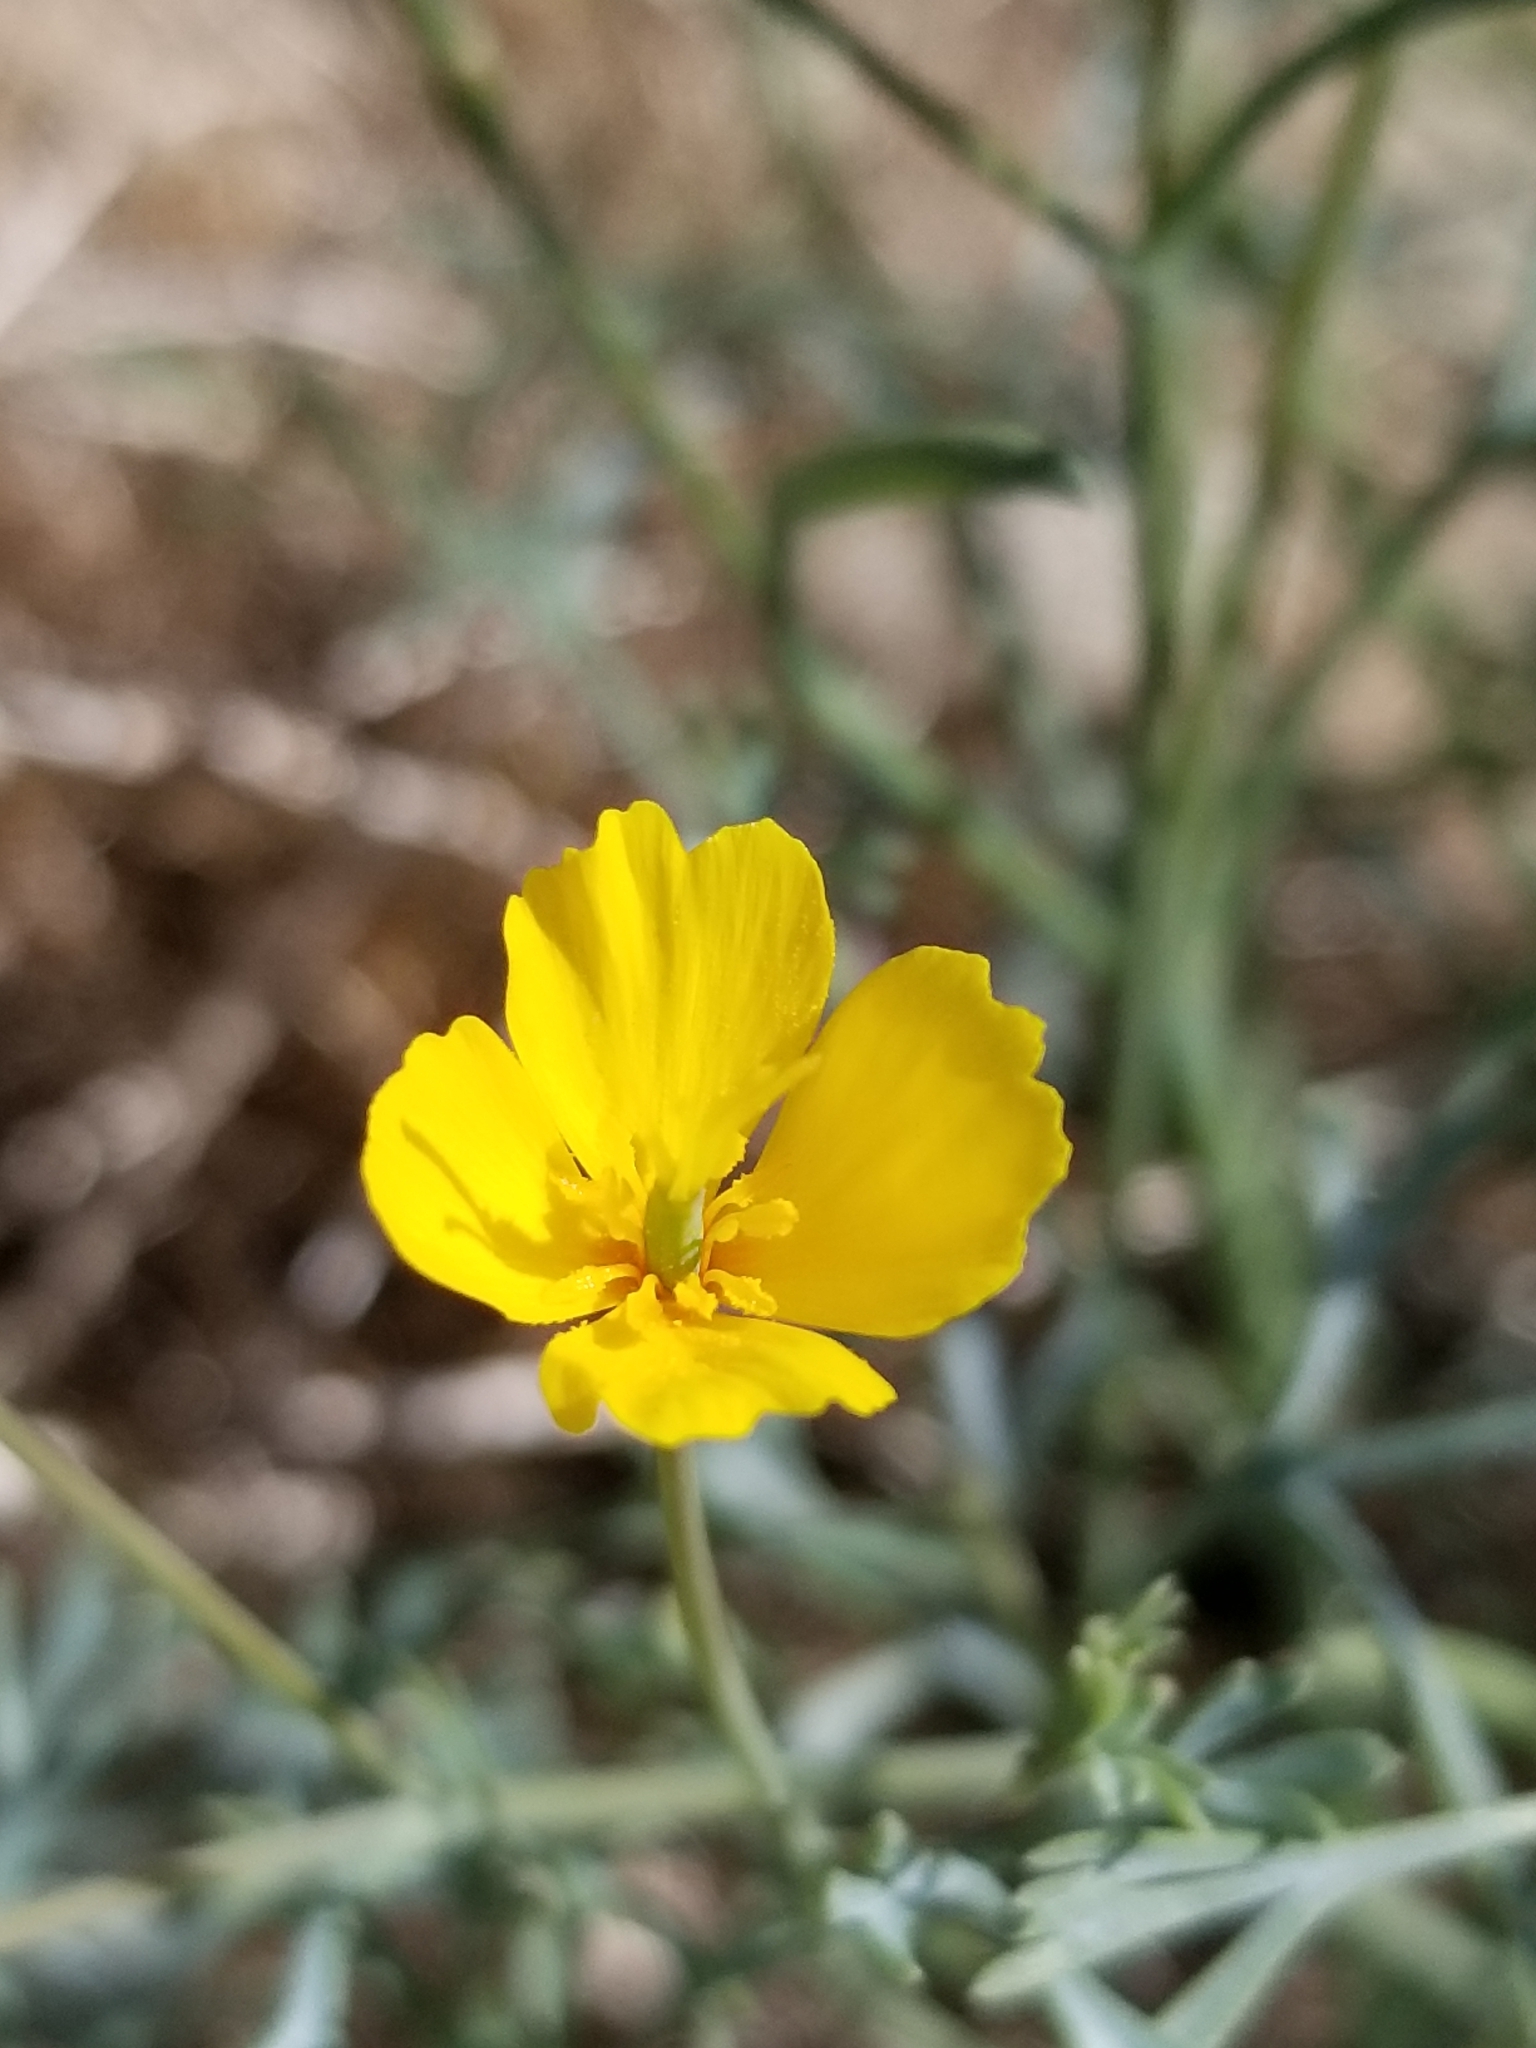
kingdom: Plantae
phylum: Tracheophyta
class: Magnoliopsida
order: Ranunculales
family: Papaveraceae
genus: Eschscholzia
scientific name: Eschscholzia minutiflora
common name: Small-flower california-poppy
